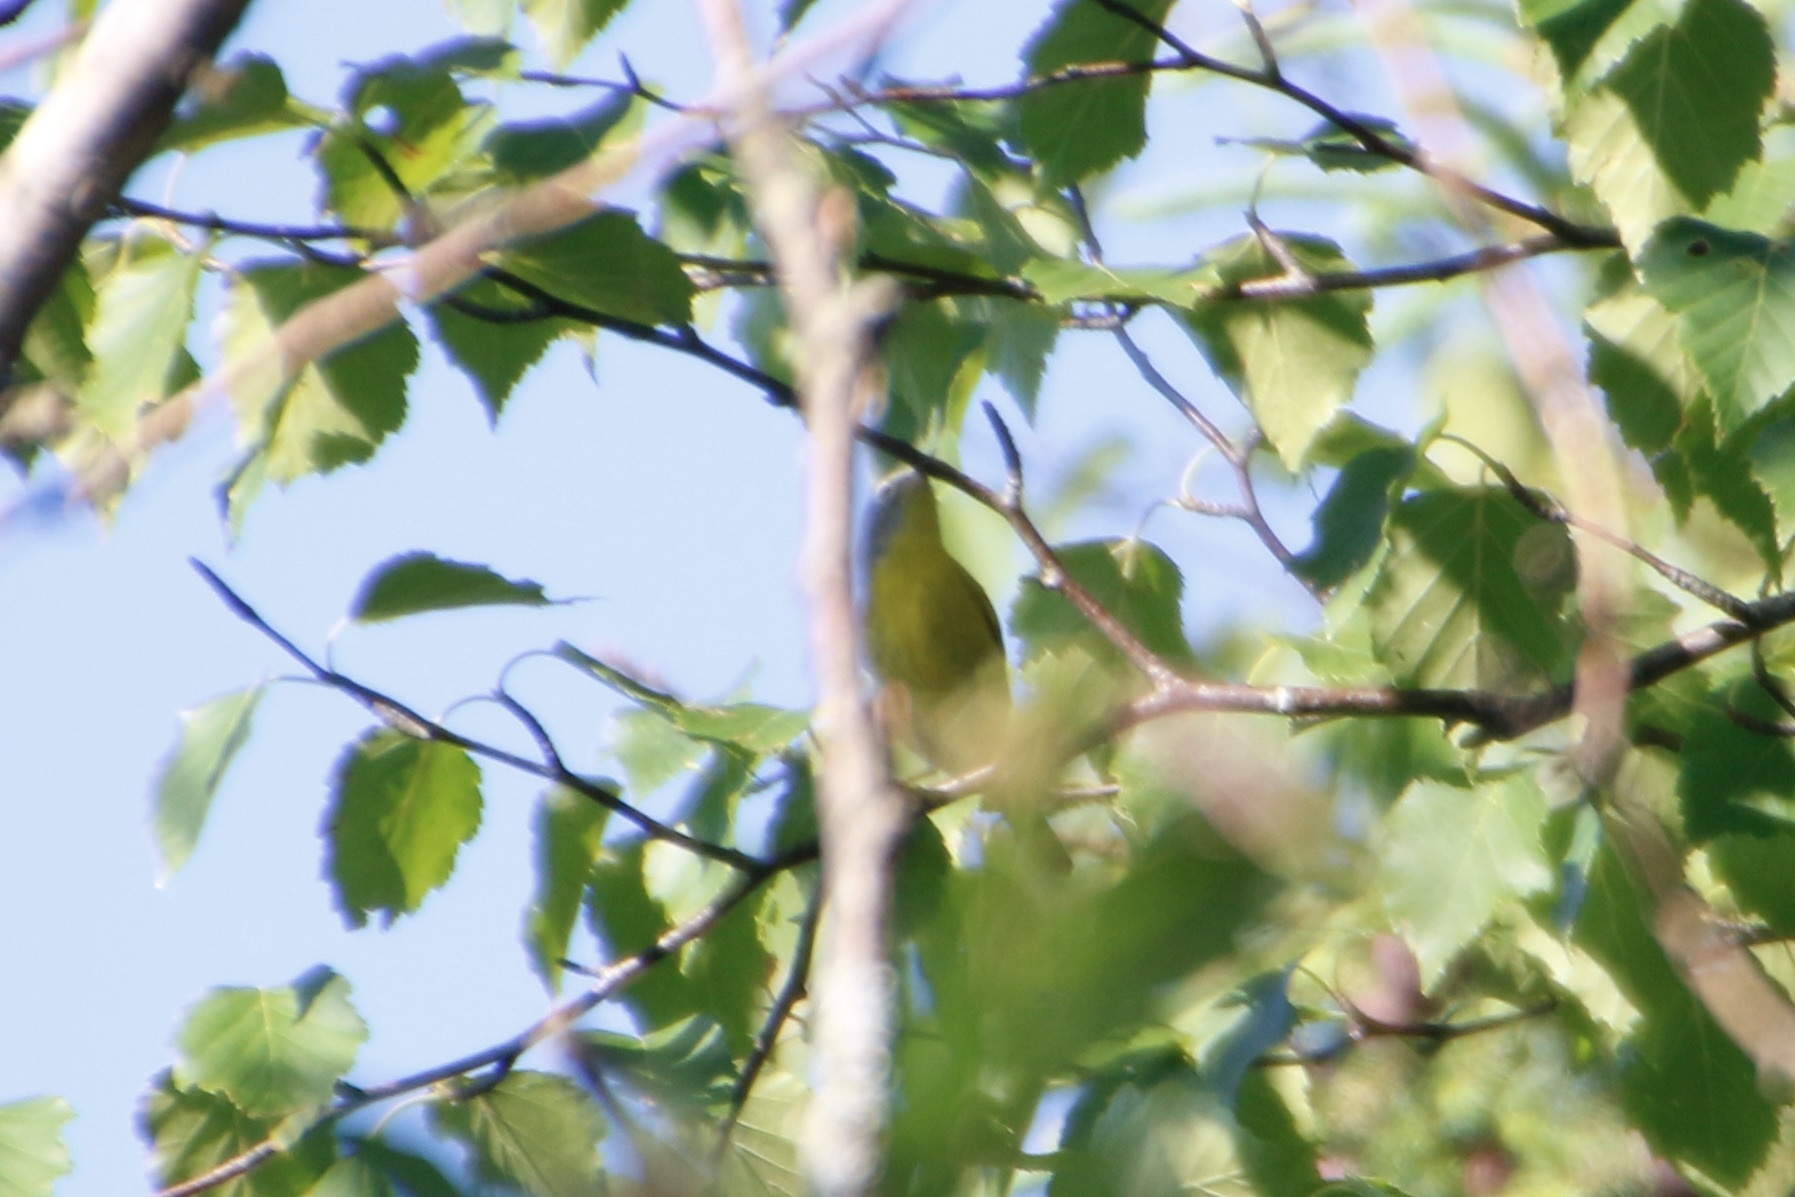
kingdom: Animalia
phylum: Chordata
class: Aves
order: Passeriformes
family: Parulidae
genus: Leiothlypis
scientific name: Leiothlypis ruficapilla
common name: Nashville warbler
